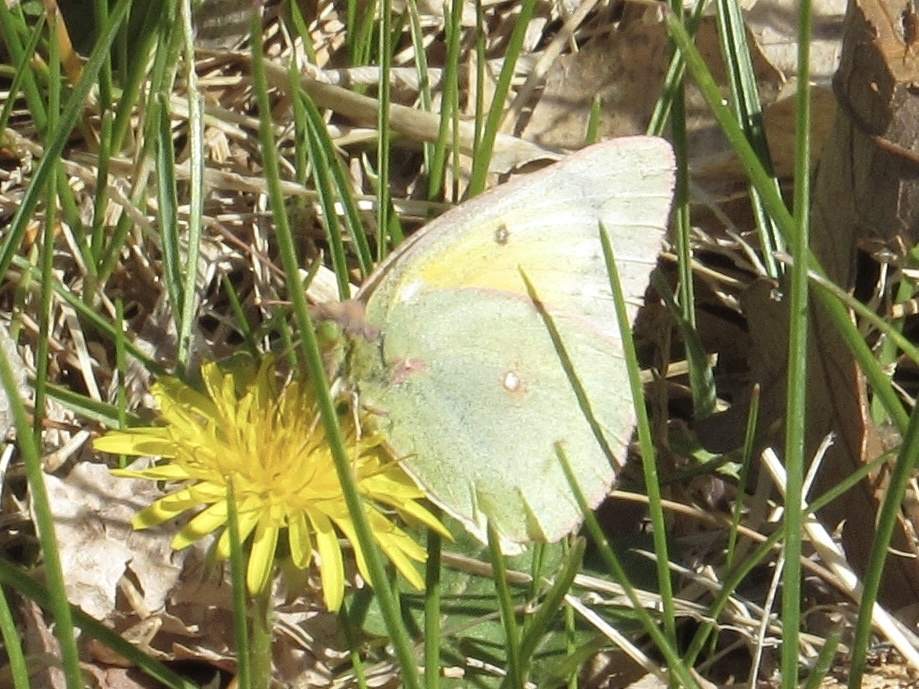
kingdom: Animalia
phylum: Arthropoda
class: Insecta
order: Lepidoptera
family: Pieridae
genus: Colias
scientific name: Colias eurytheme
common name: Alfalfa butterfly
